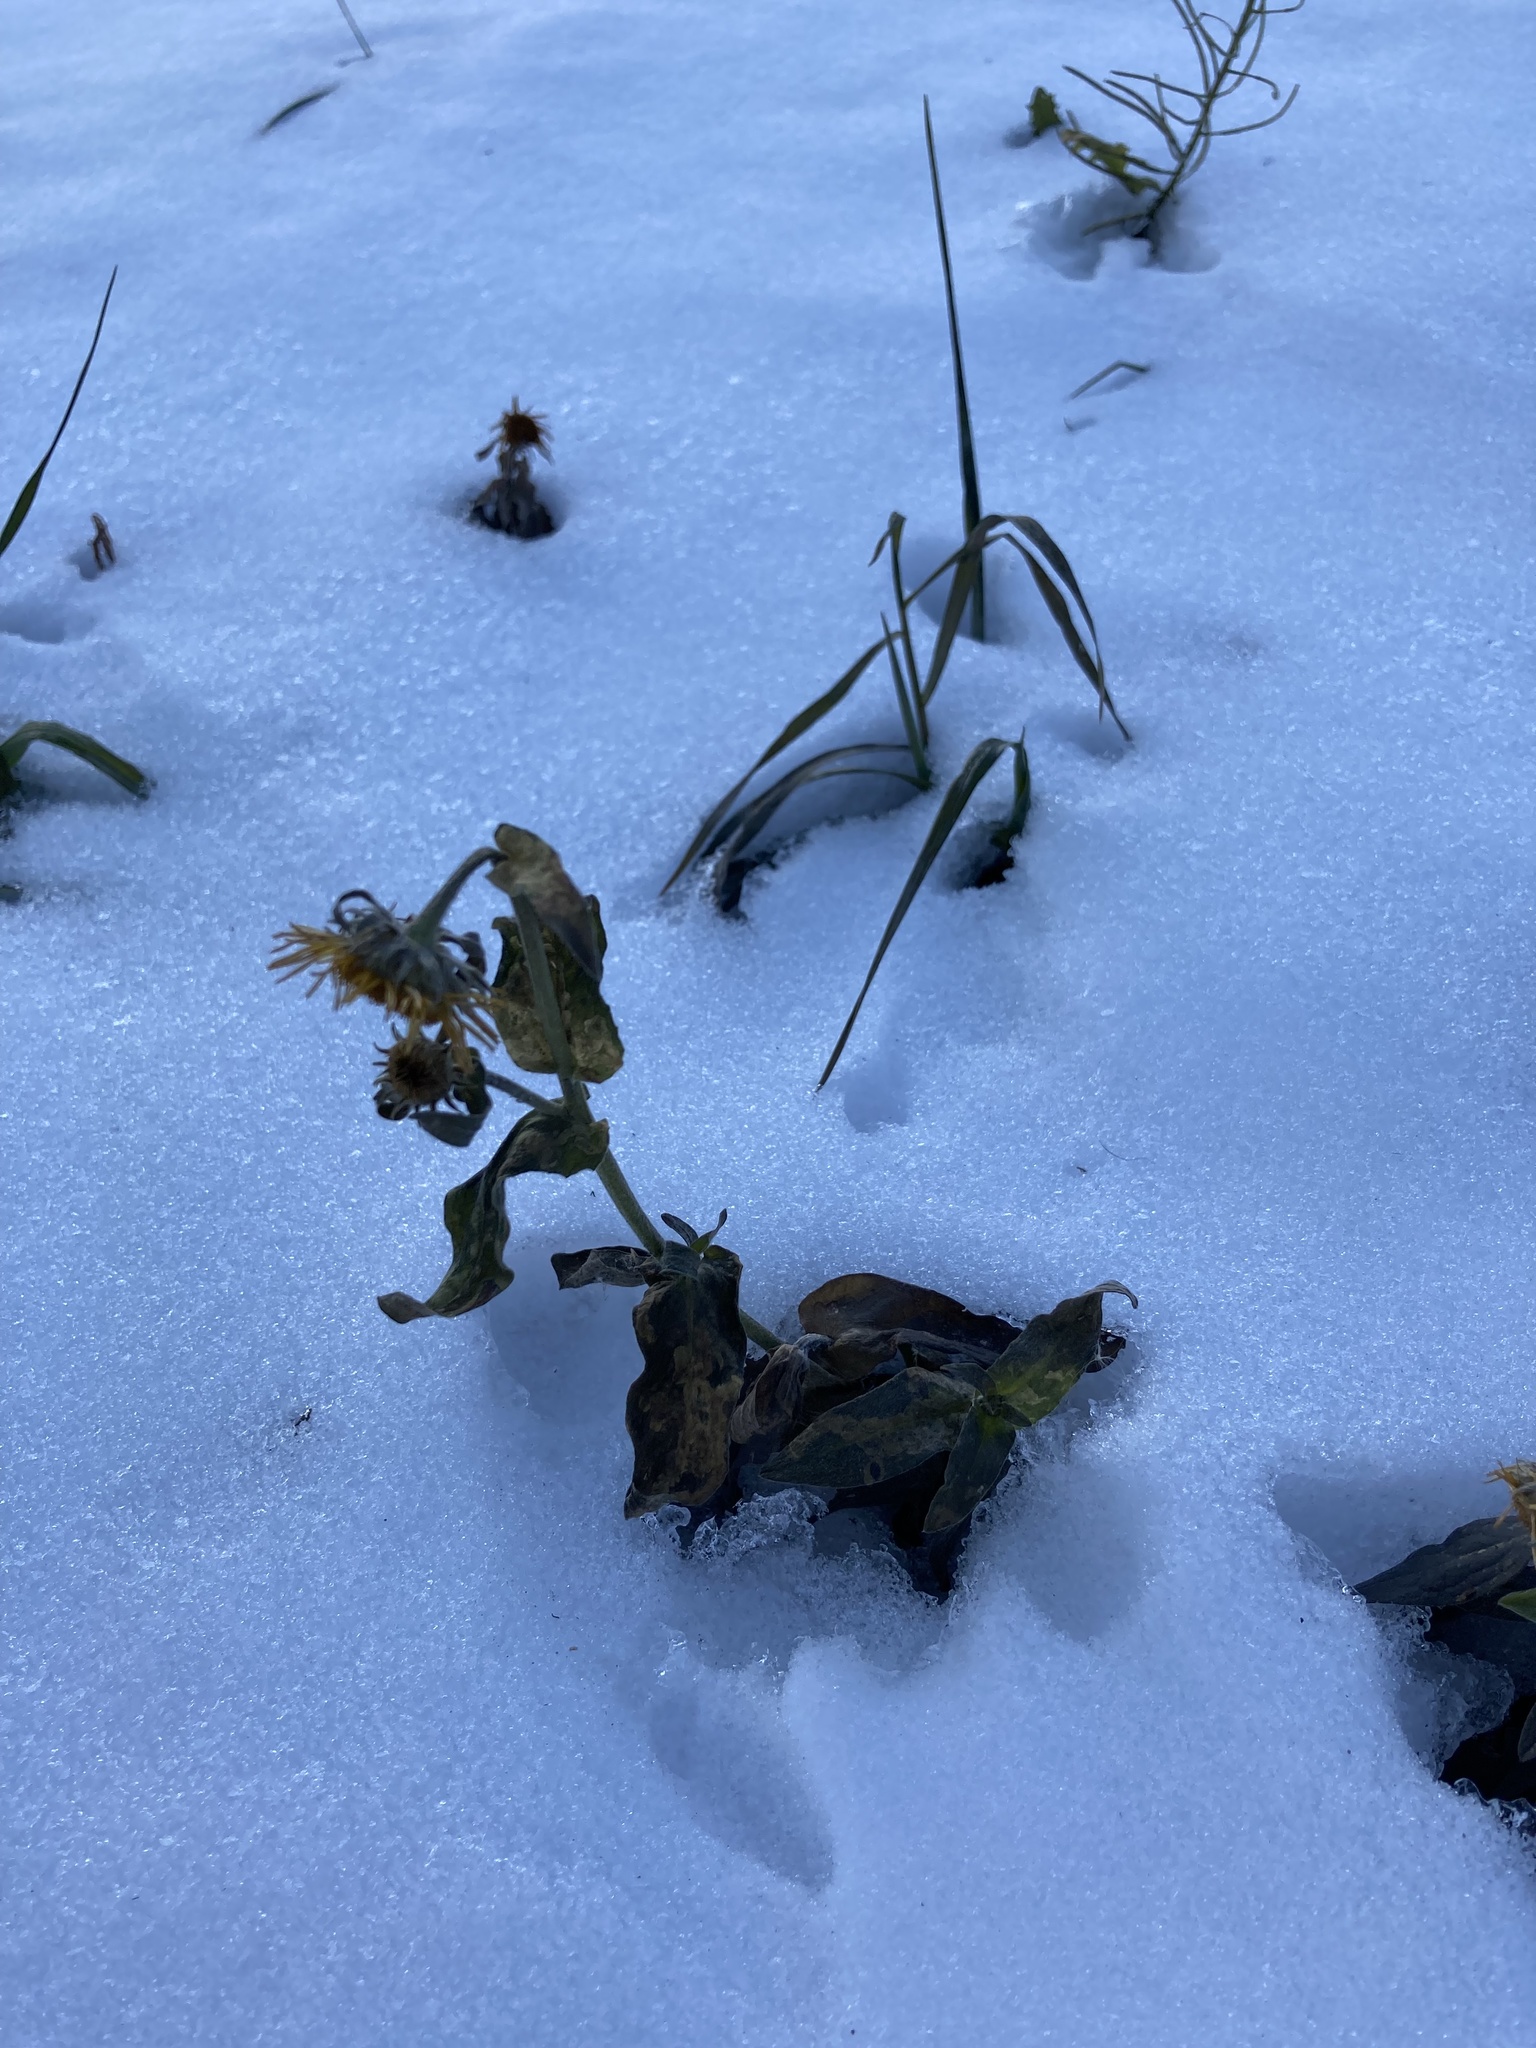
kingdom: Plantae
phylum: Tracheophyta
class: Magnoliopsida
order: Asterales
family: Asteraceae
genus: Pentanema
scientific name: Pentanema britannicum
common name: British elecampane
